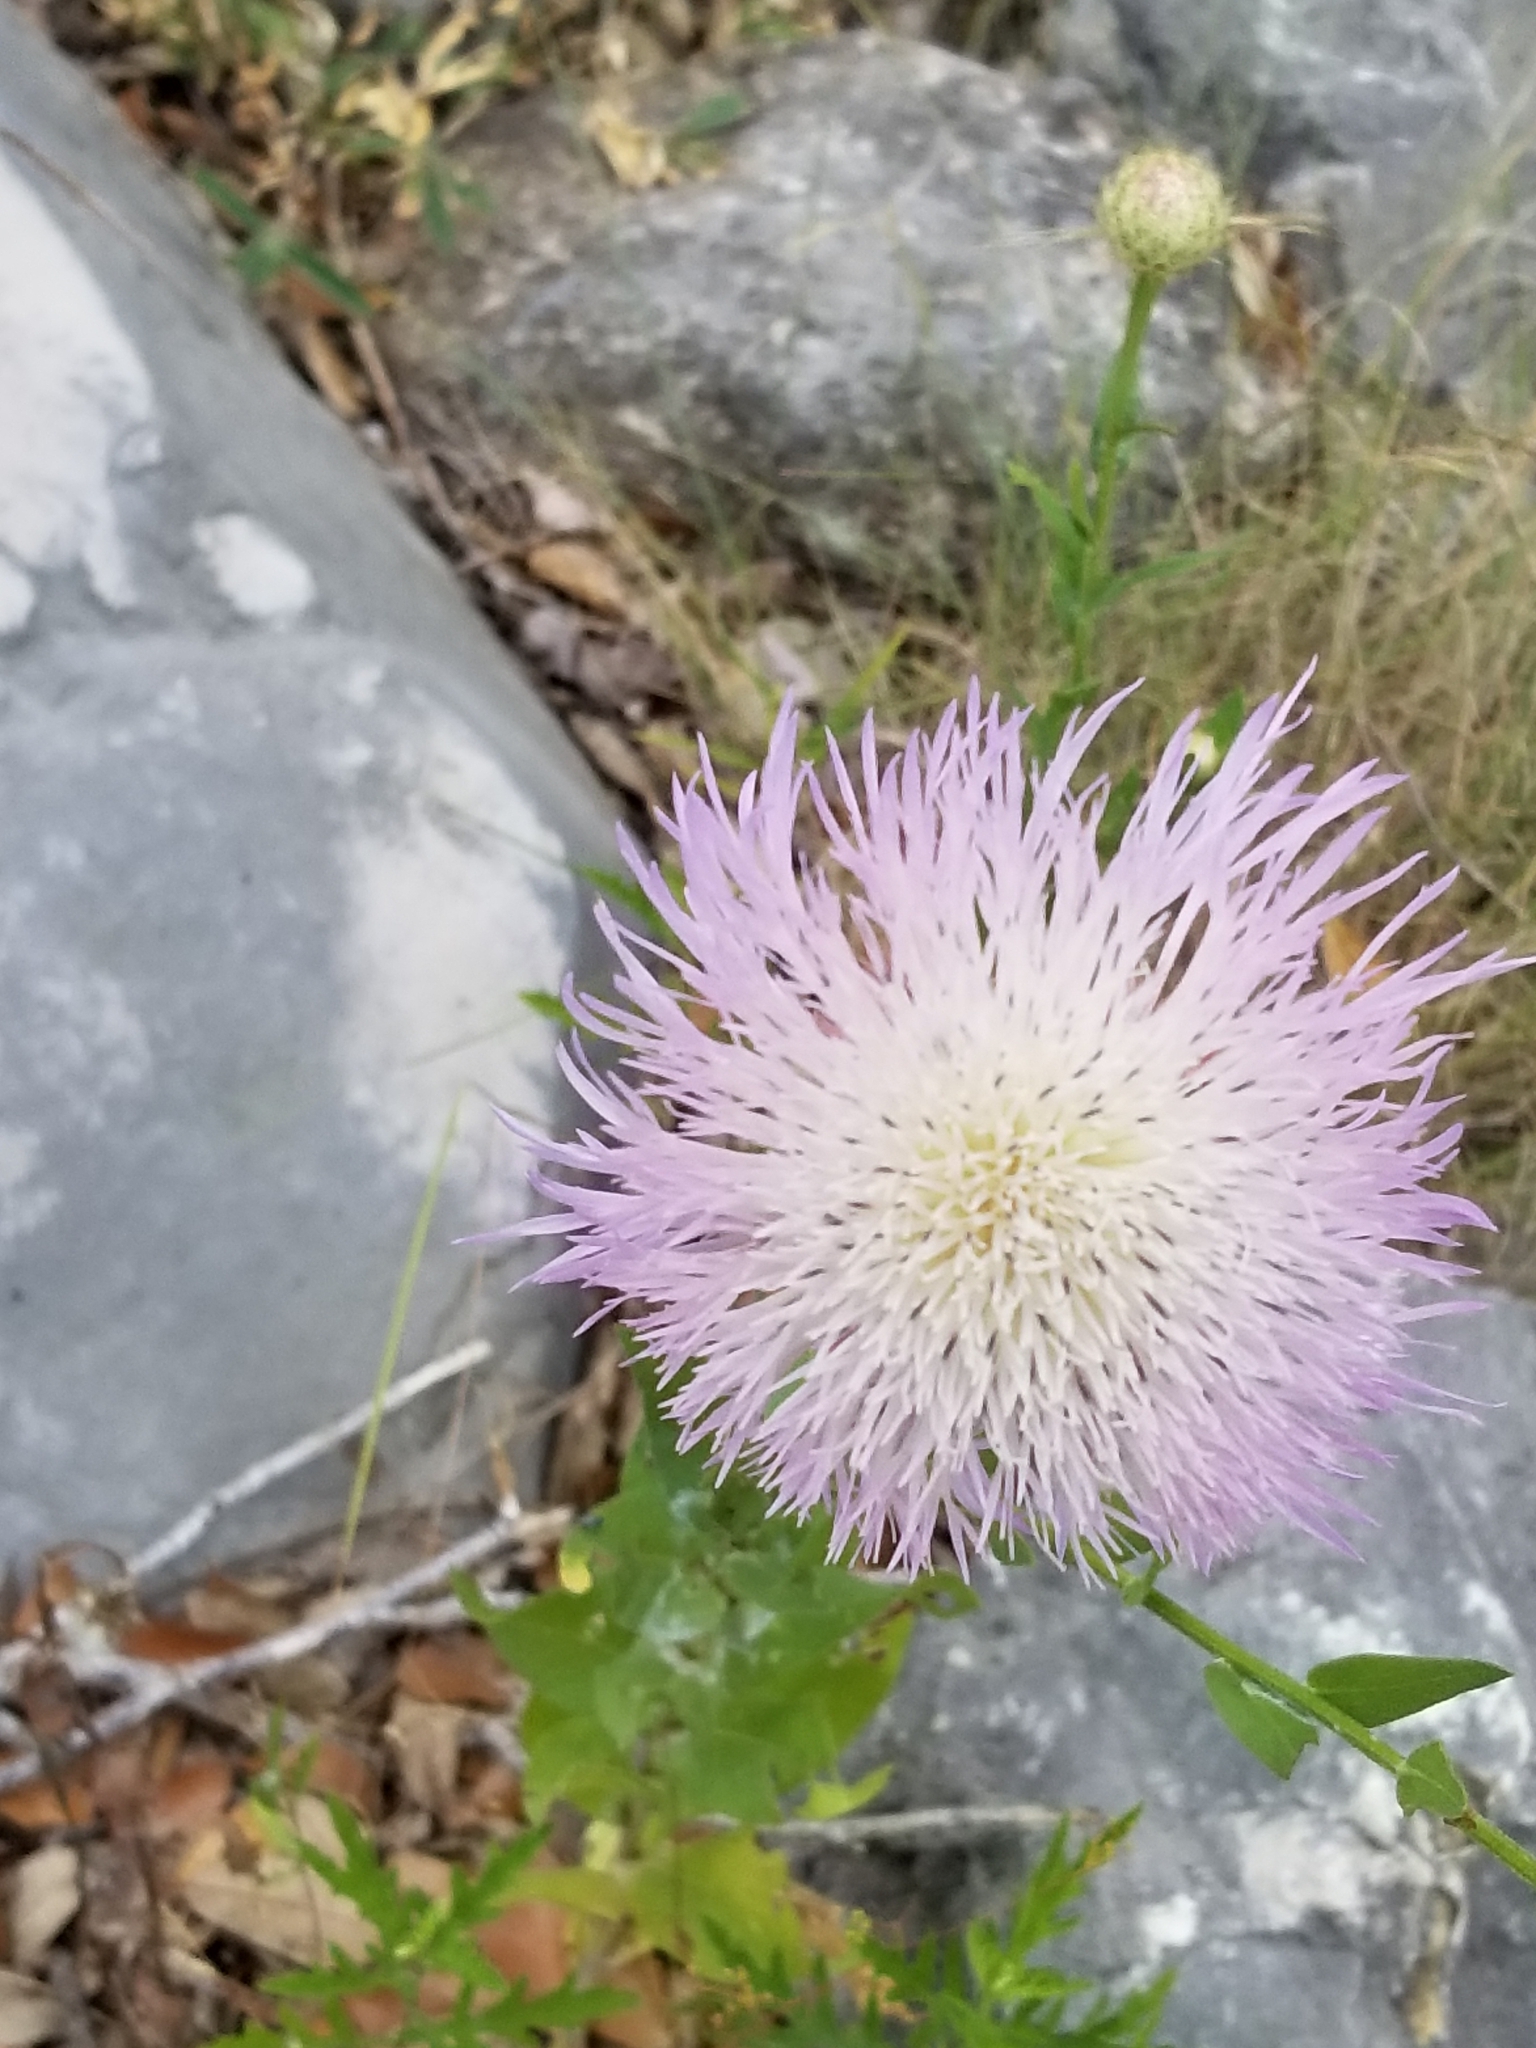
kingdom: Plantae
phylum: Tracheophyta
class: Magnoliopsida
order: Asterales
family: Asteraceae
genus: Plectocephalus
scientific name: Plectocephalus americanus
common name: American basket-flower
